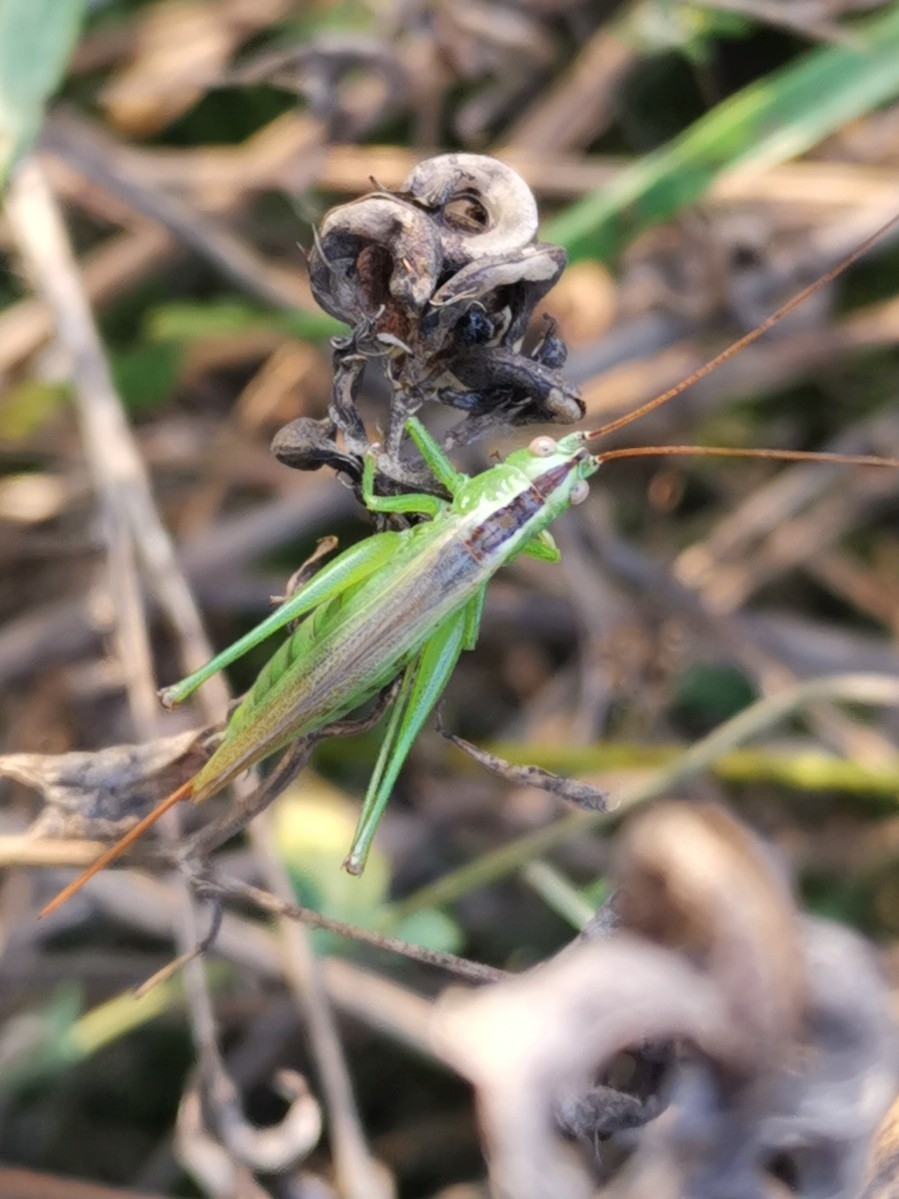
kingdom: Animalia
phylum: Arthropoda
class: Insecta
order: Orthoptera
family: Tettigoniidae
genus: Conocephalus
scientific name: Conocephalus fuscus
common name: Long-winged conehead
